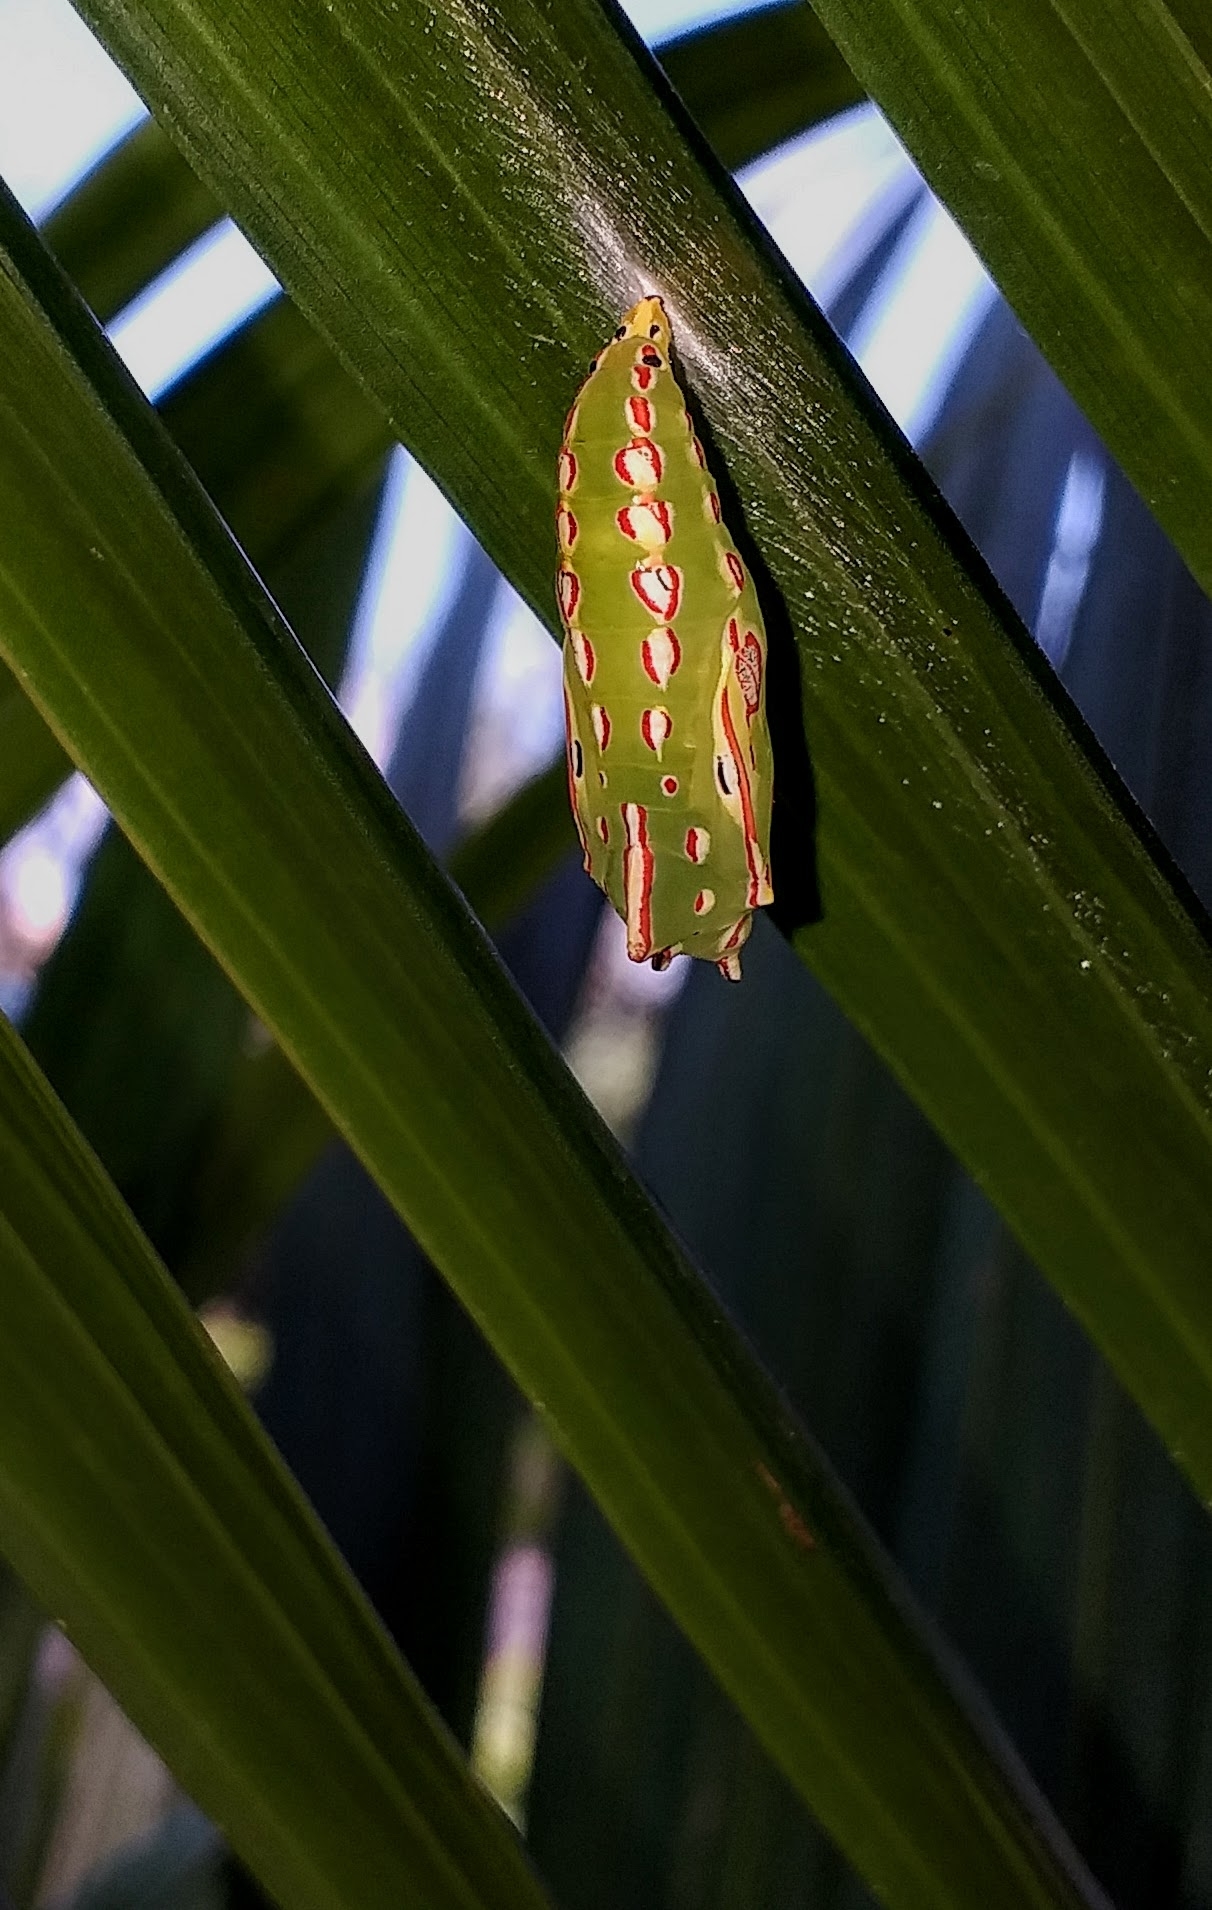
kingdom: Animalia
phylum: Arthropoda
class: Insecta
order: Lepidoptera
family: Nymphalidae
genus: Elymnias
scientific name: Elymnias caudata
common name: Tailed palmfly
